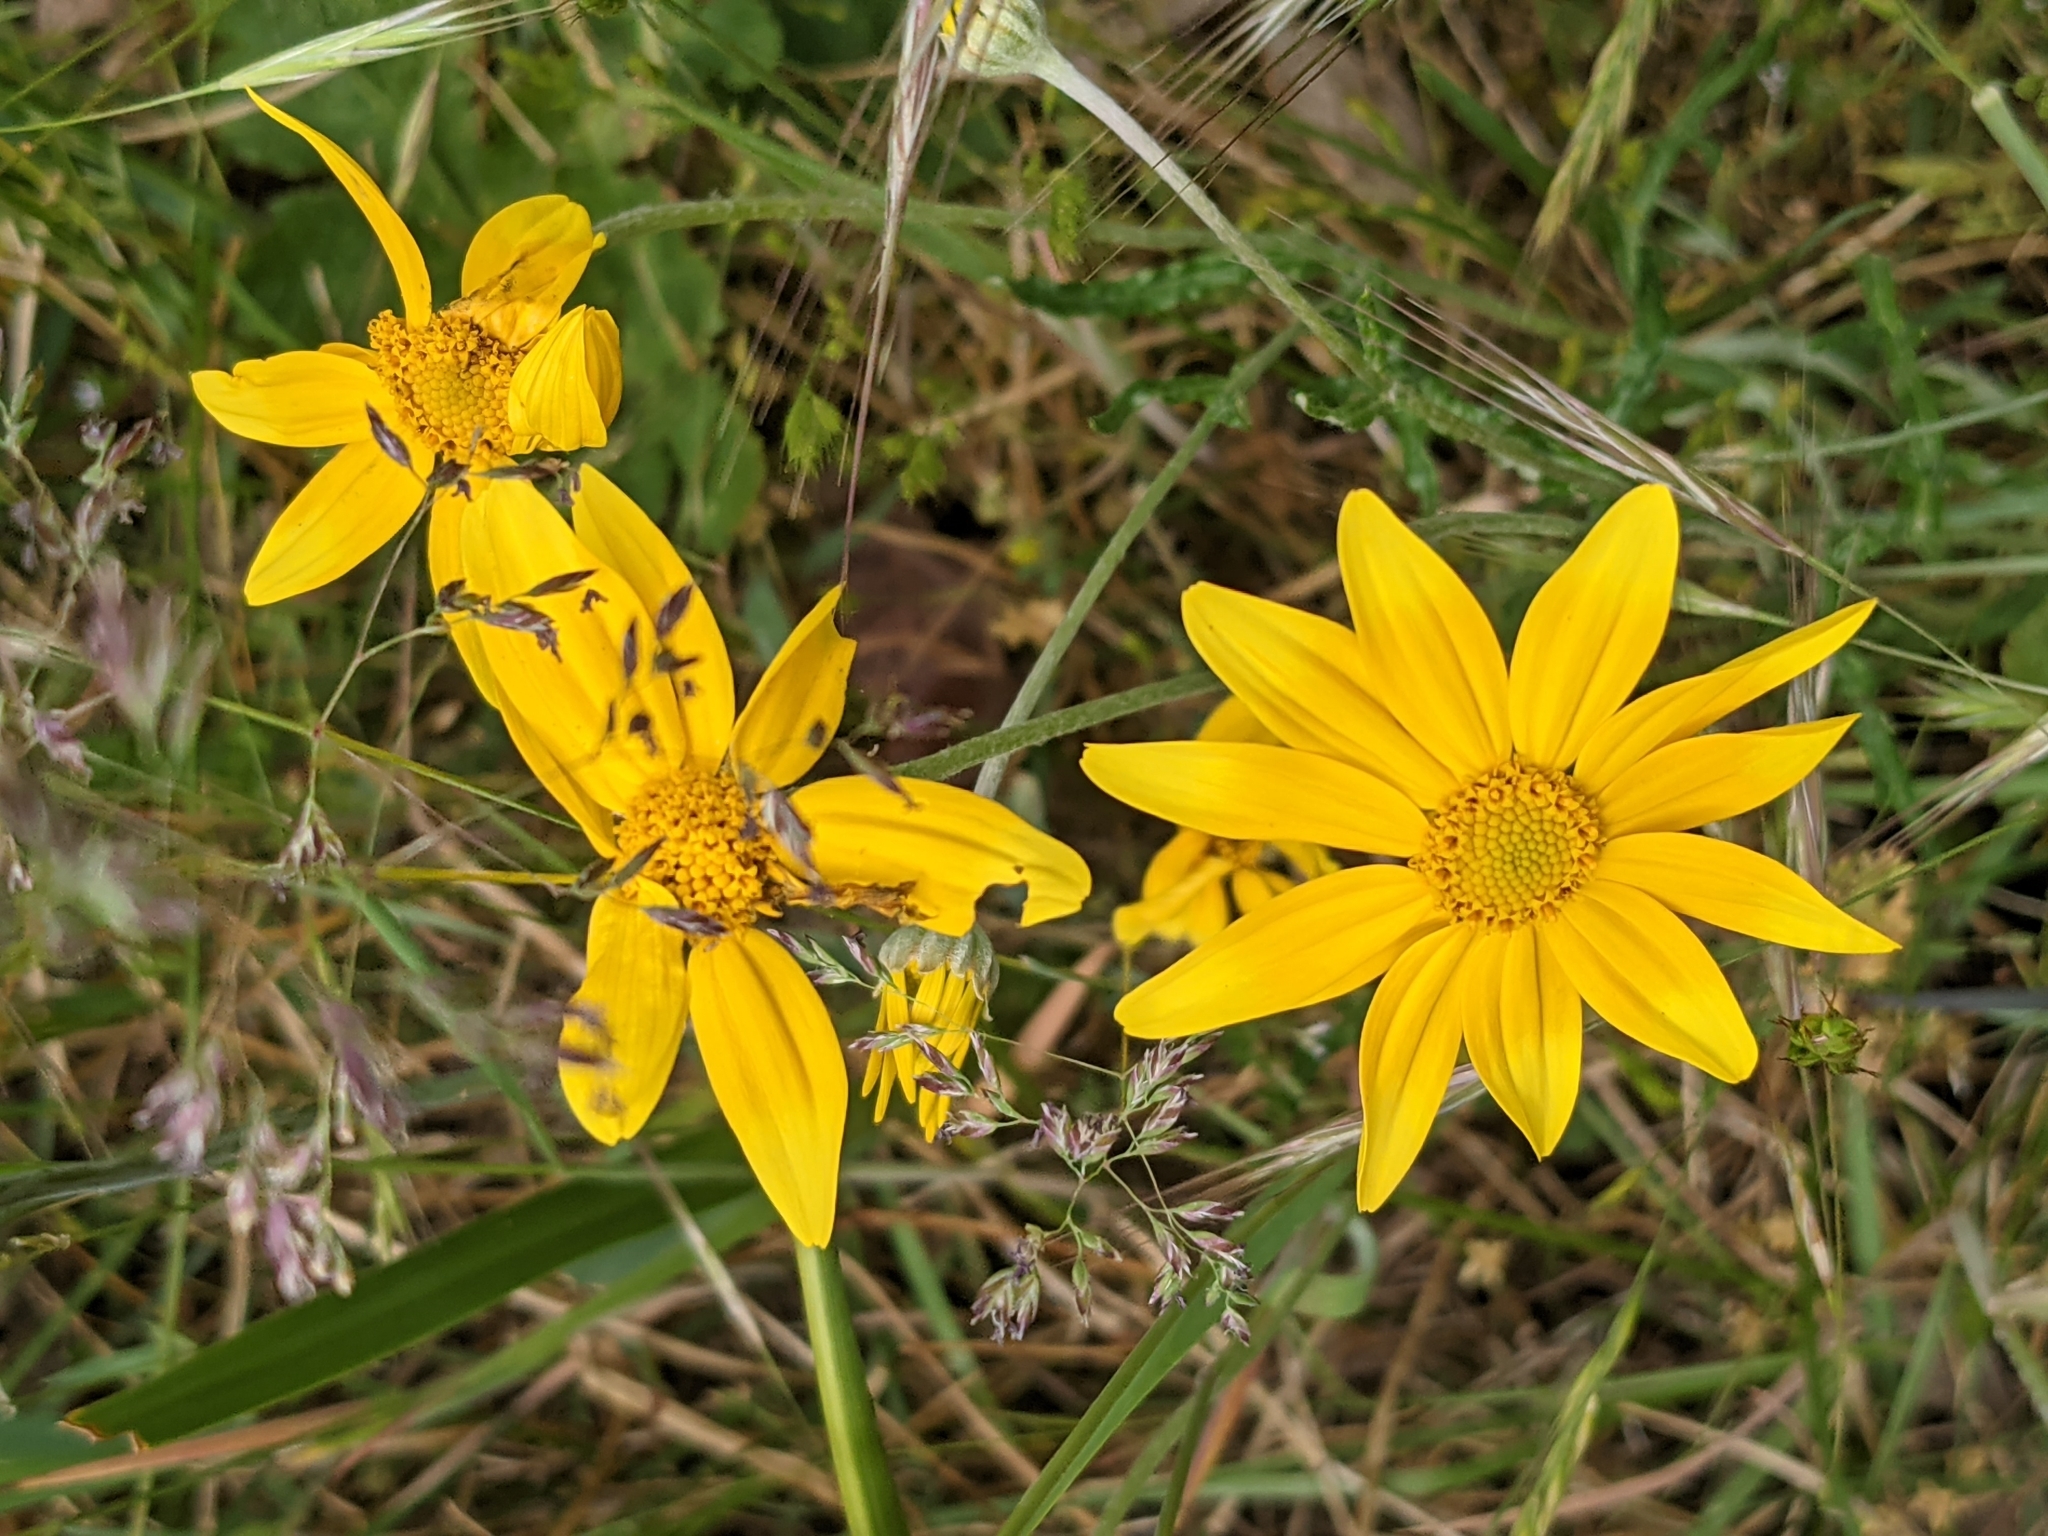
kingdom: Plantae
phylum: Tracheophyta
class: Magnoliopsida
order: Asterales
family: Asteraceae
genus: Eriophyllum
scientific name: Eriophyllum lanatum
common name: Common woolly-sunflower
